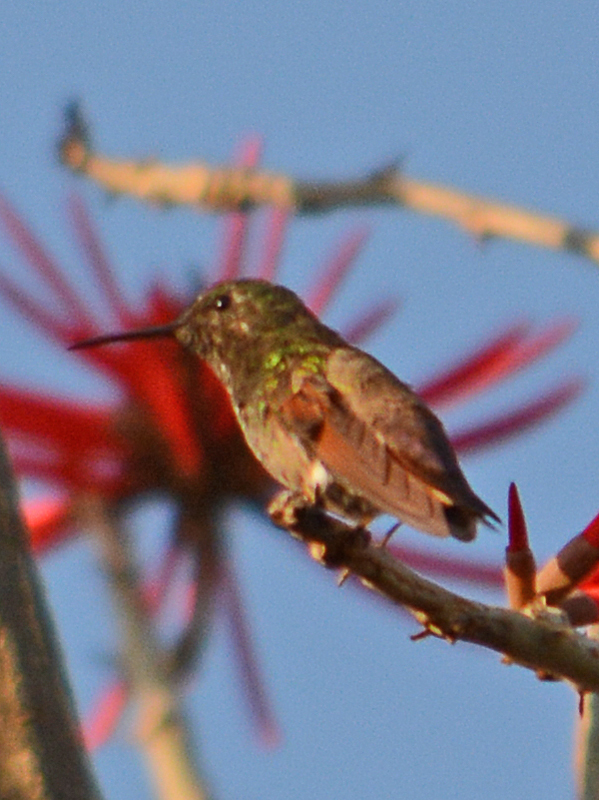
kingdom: Animalia
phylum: Chordata
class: Aves
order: Apodiformes
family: Trochilidae
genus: Saucerottia
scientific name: Saucerottia beryllina
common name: Berylline hummingbird
